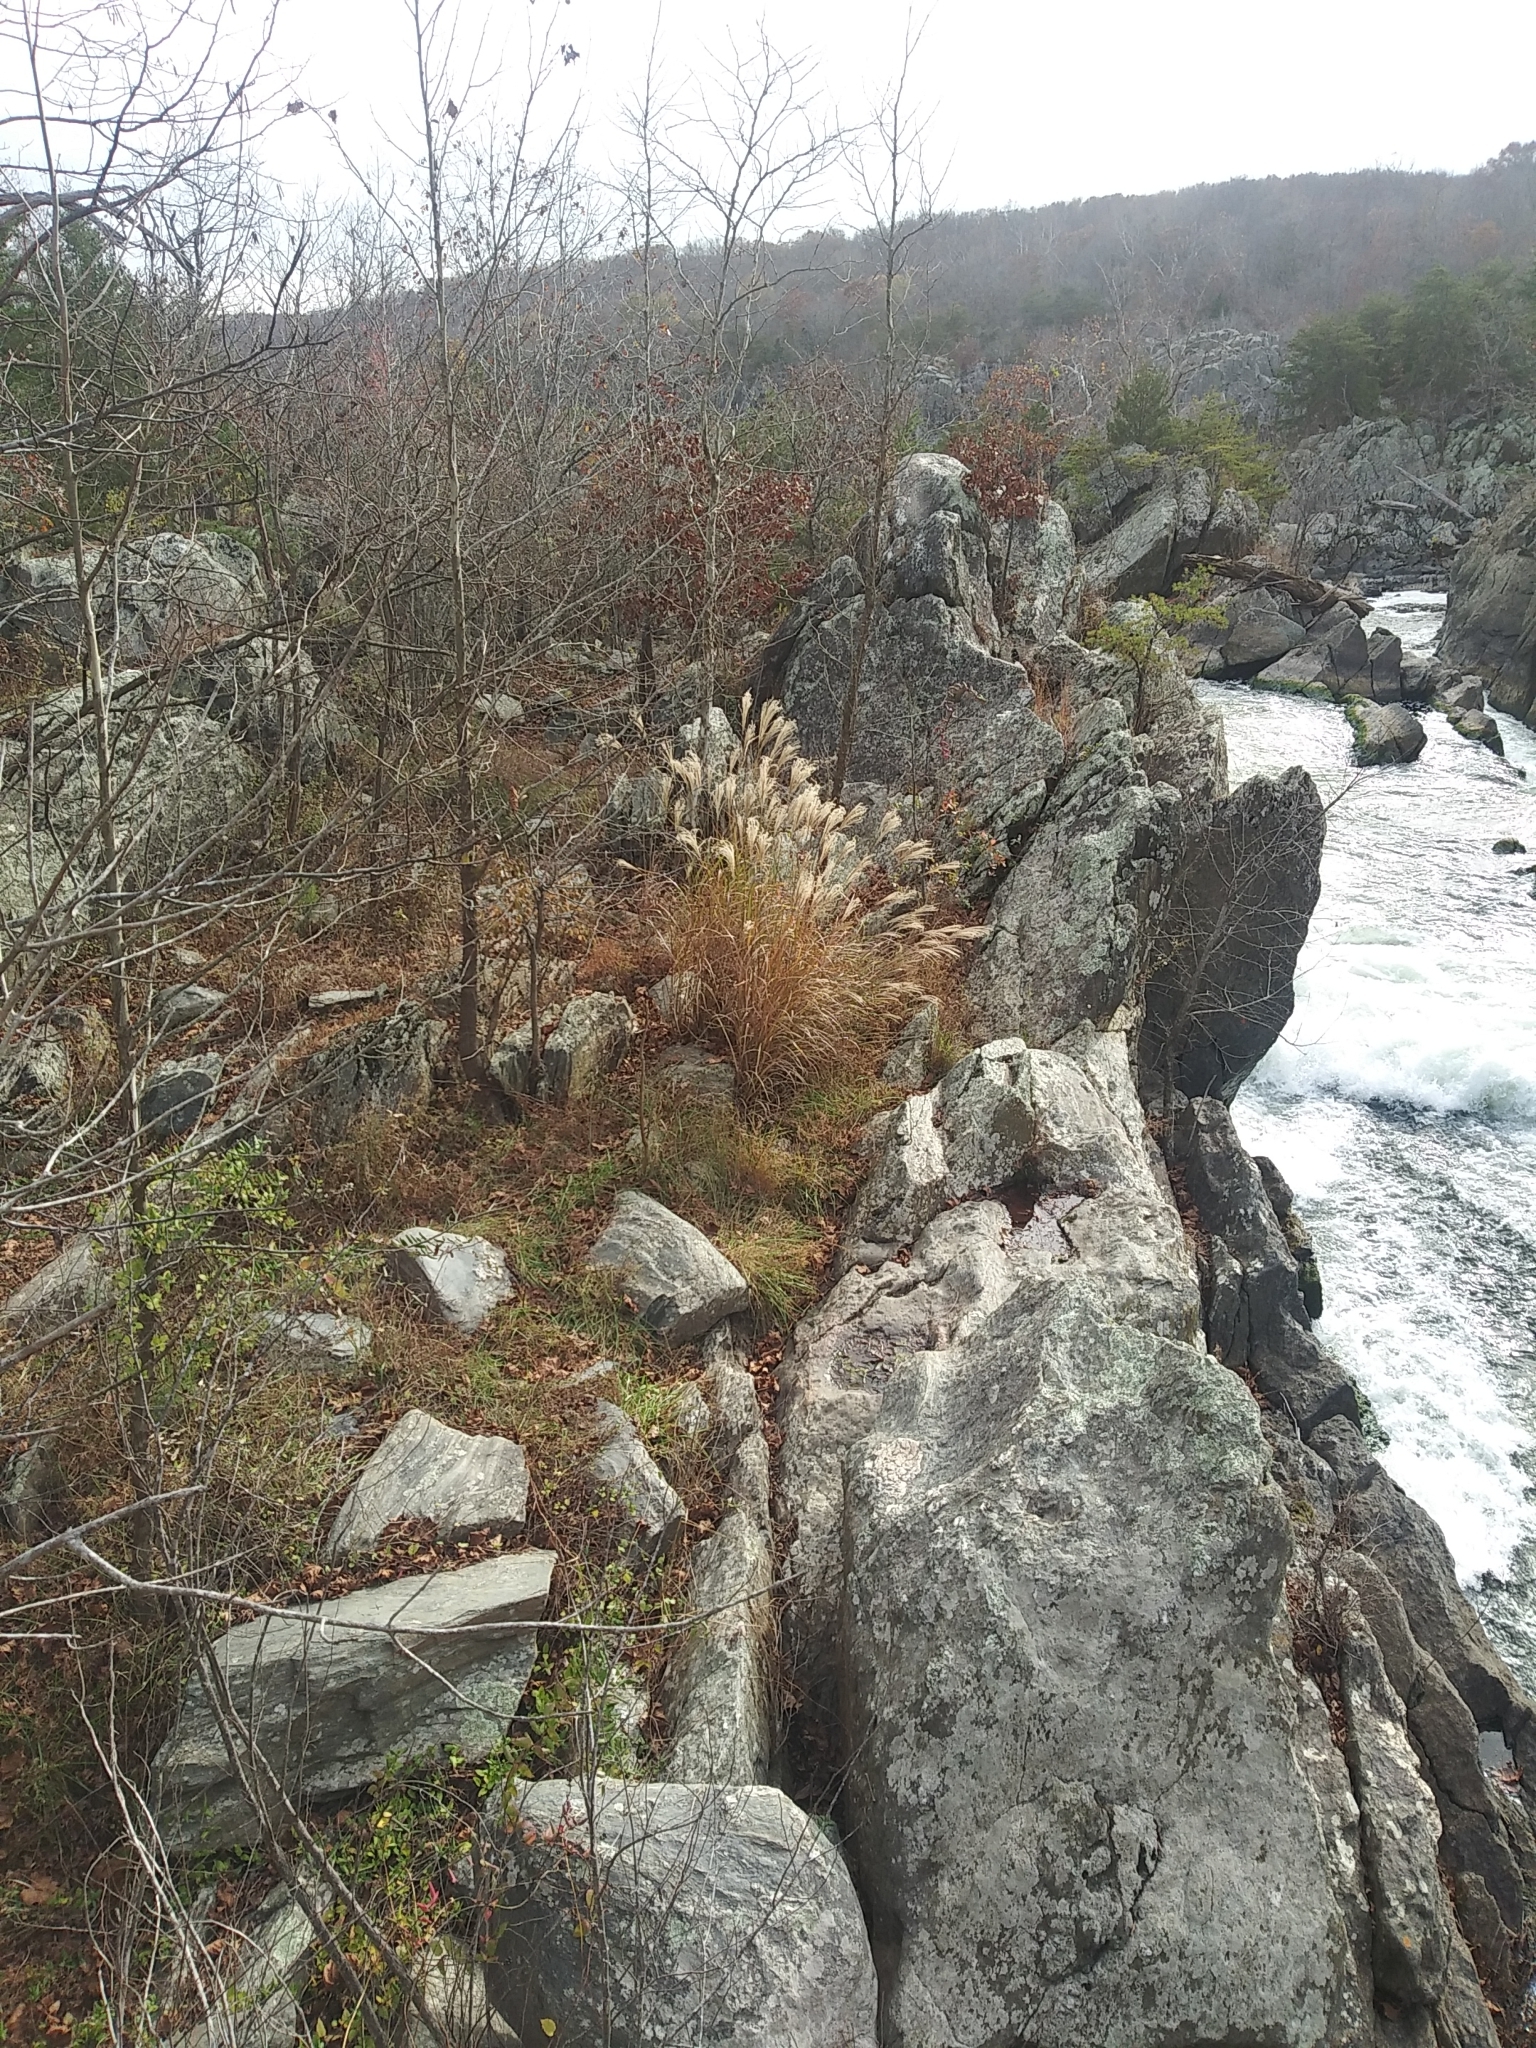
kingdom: Plantae
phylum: Tracheophyta
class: Liliopsida
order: Poales
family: Poaceae
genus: Miscanthus
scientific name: Miscanthus sinensis
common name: Chinese silvergrass
